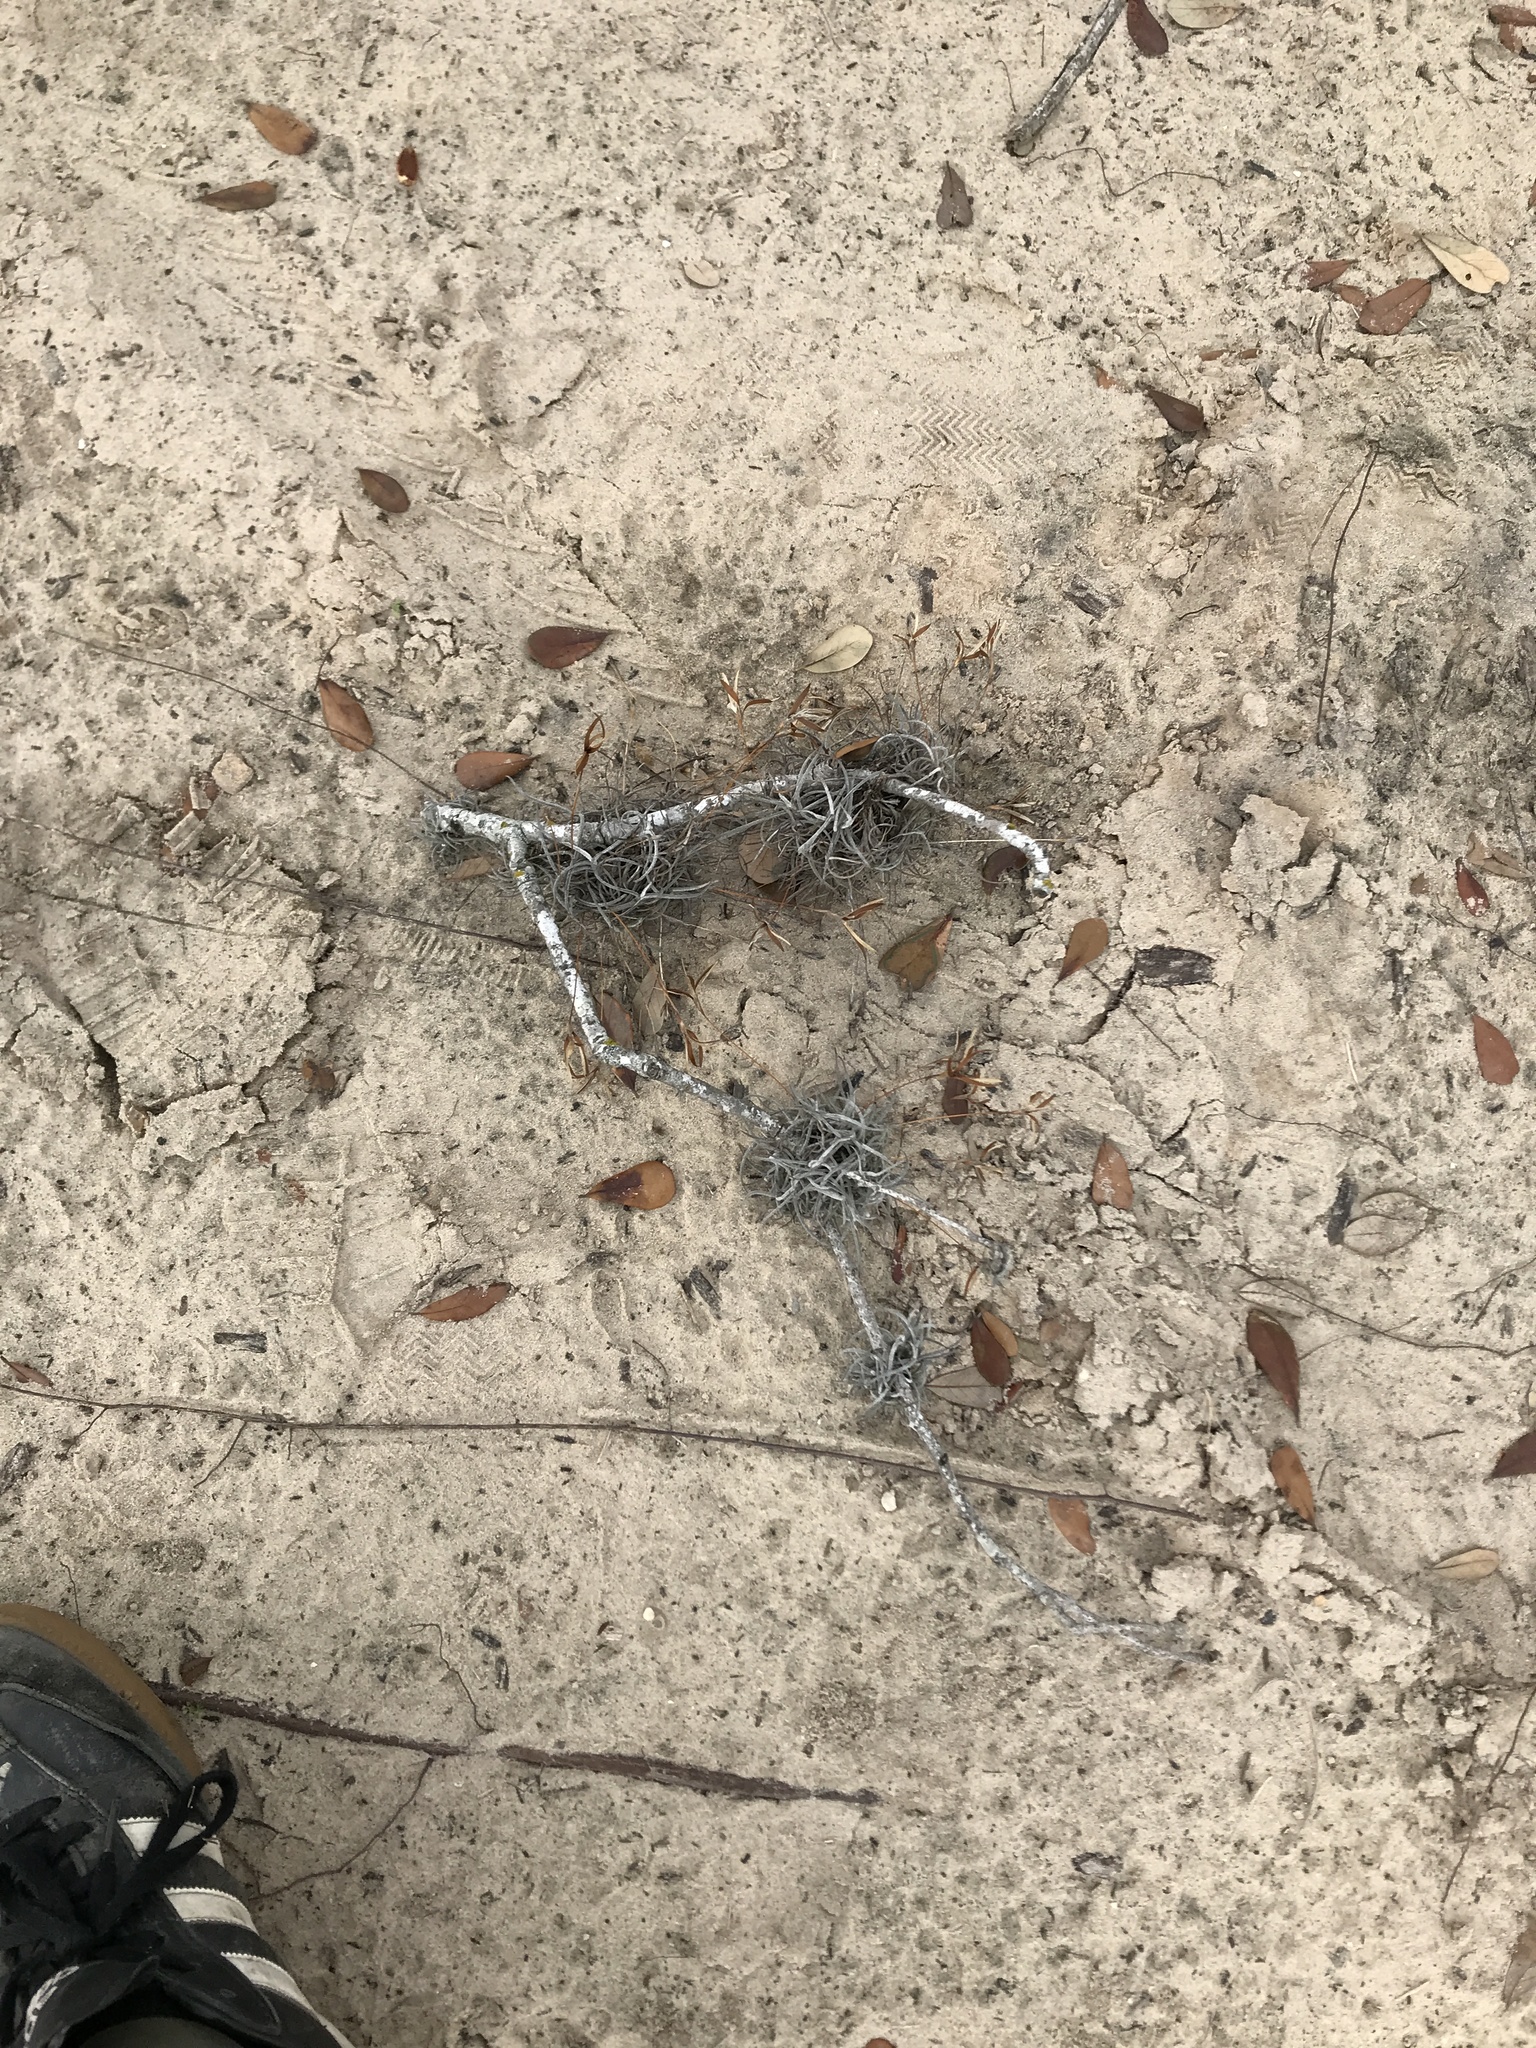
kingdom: Plantae
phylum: Tracheophyta
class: Liliopsida
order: Poales
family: Bromeliaceae
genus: Tillandsia
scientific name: Tillandsia recurvata
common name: Small ballmoss
